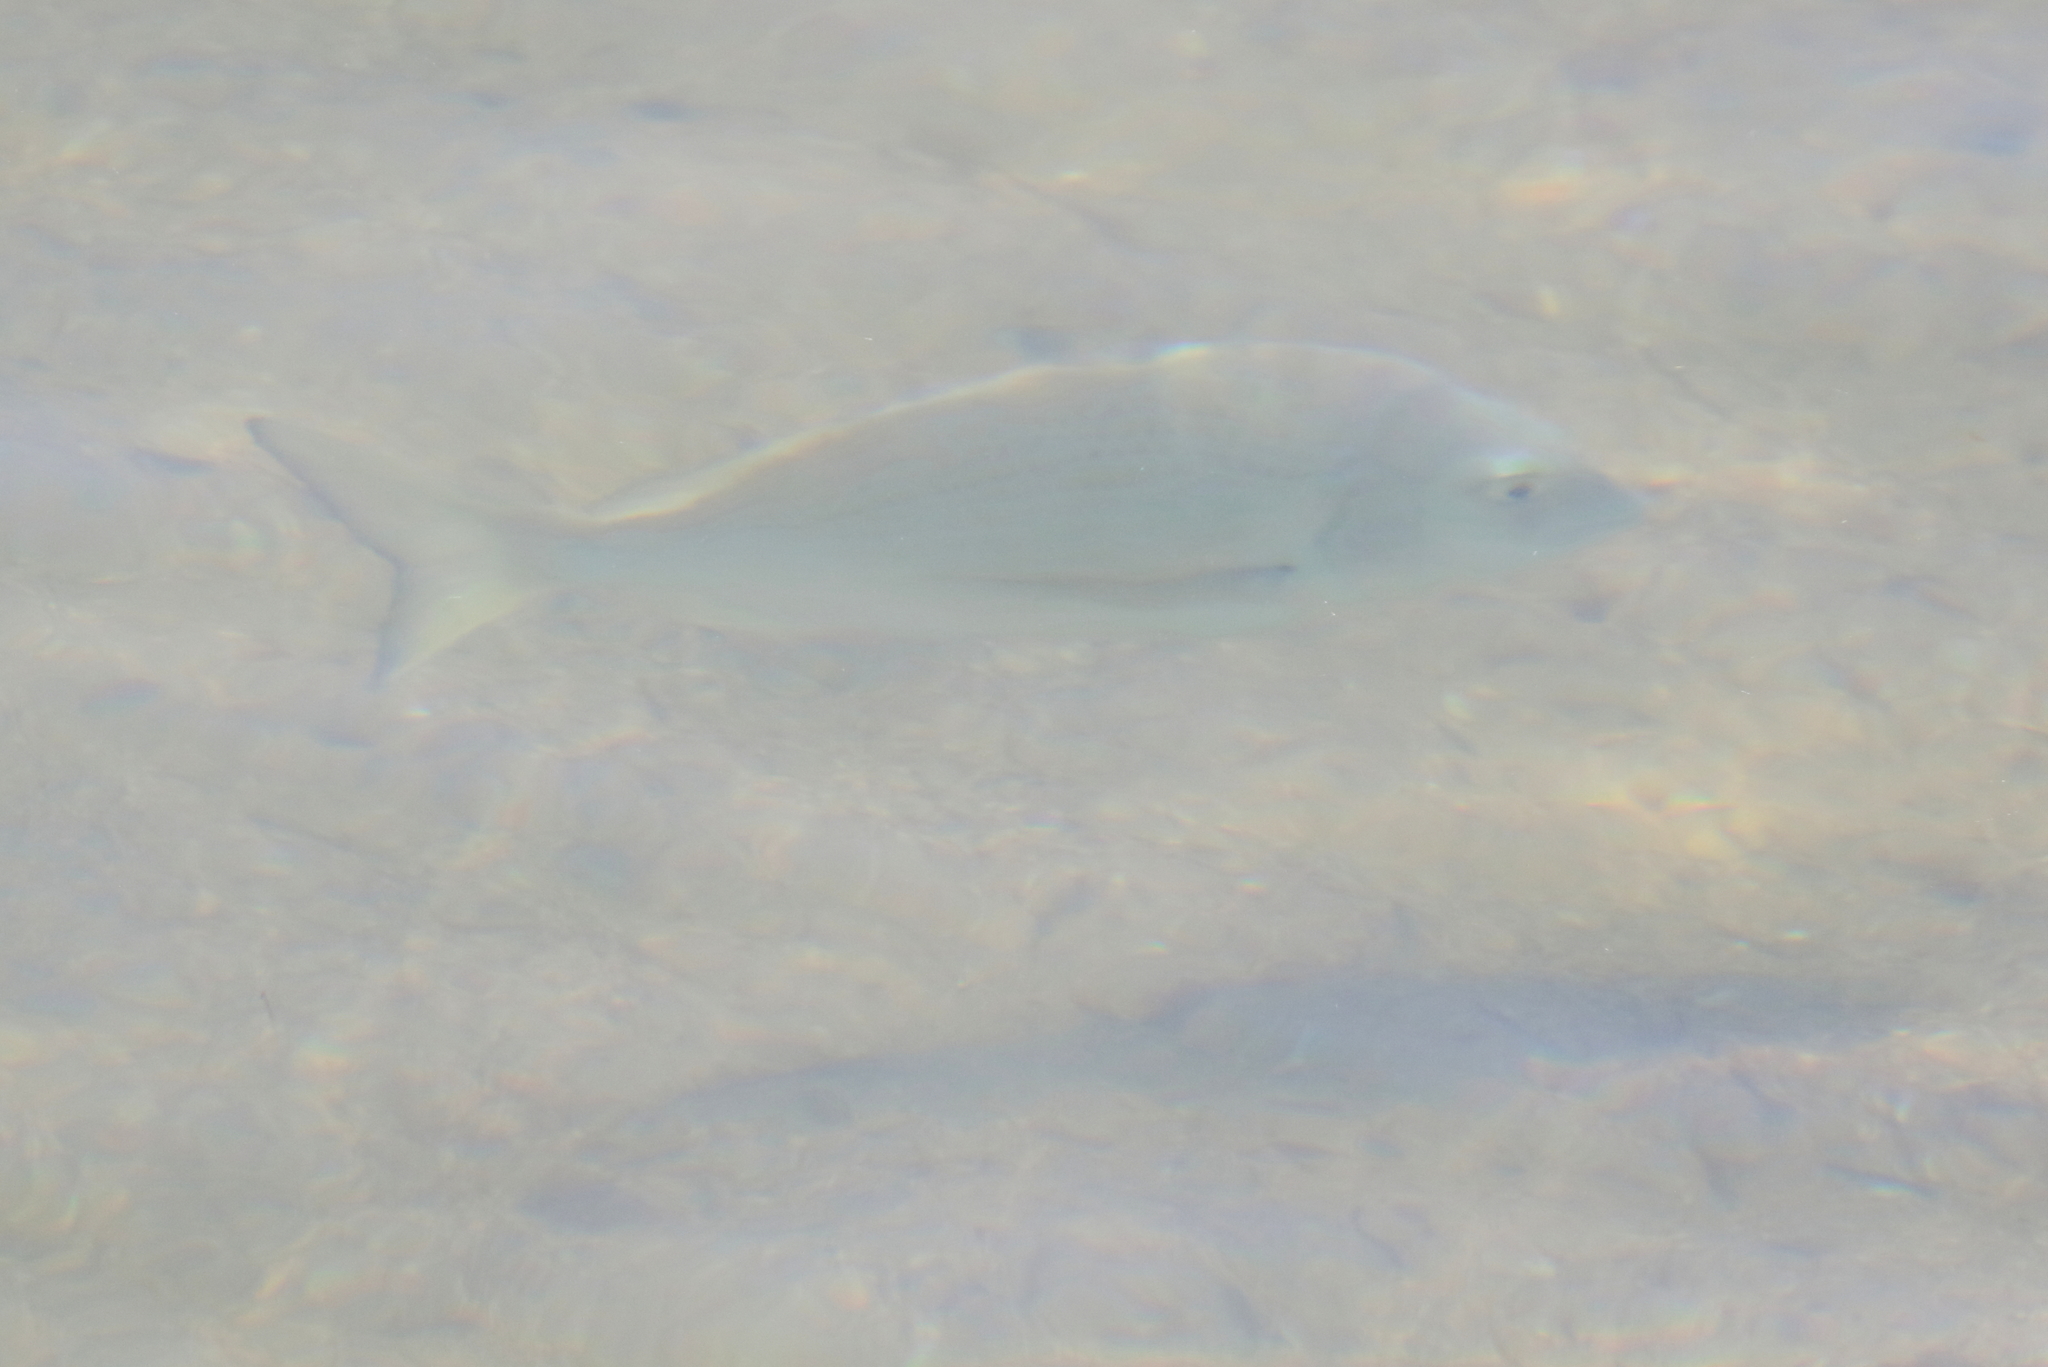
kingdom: Animalia
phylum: Chordata
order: Perciformes
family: Sparidae
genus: Acanthopagrus
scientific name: Acanthopagrus australis
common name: Surf bream
